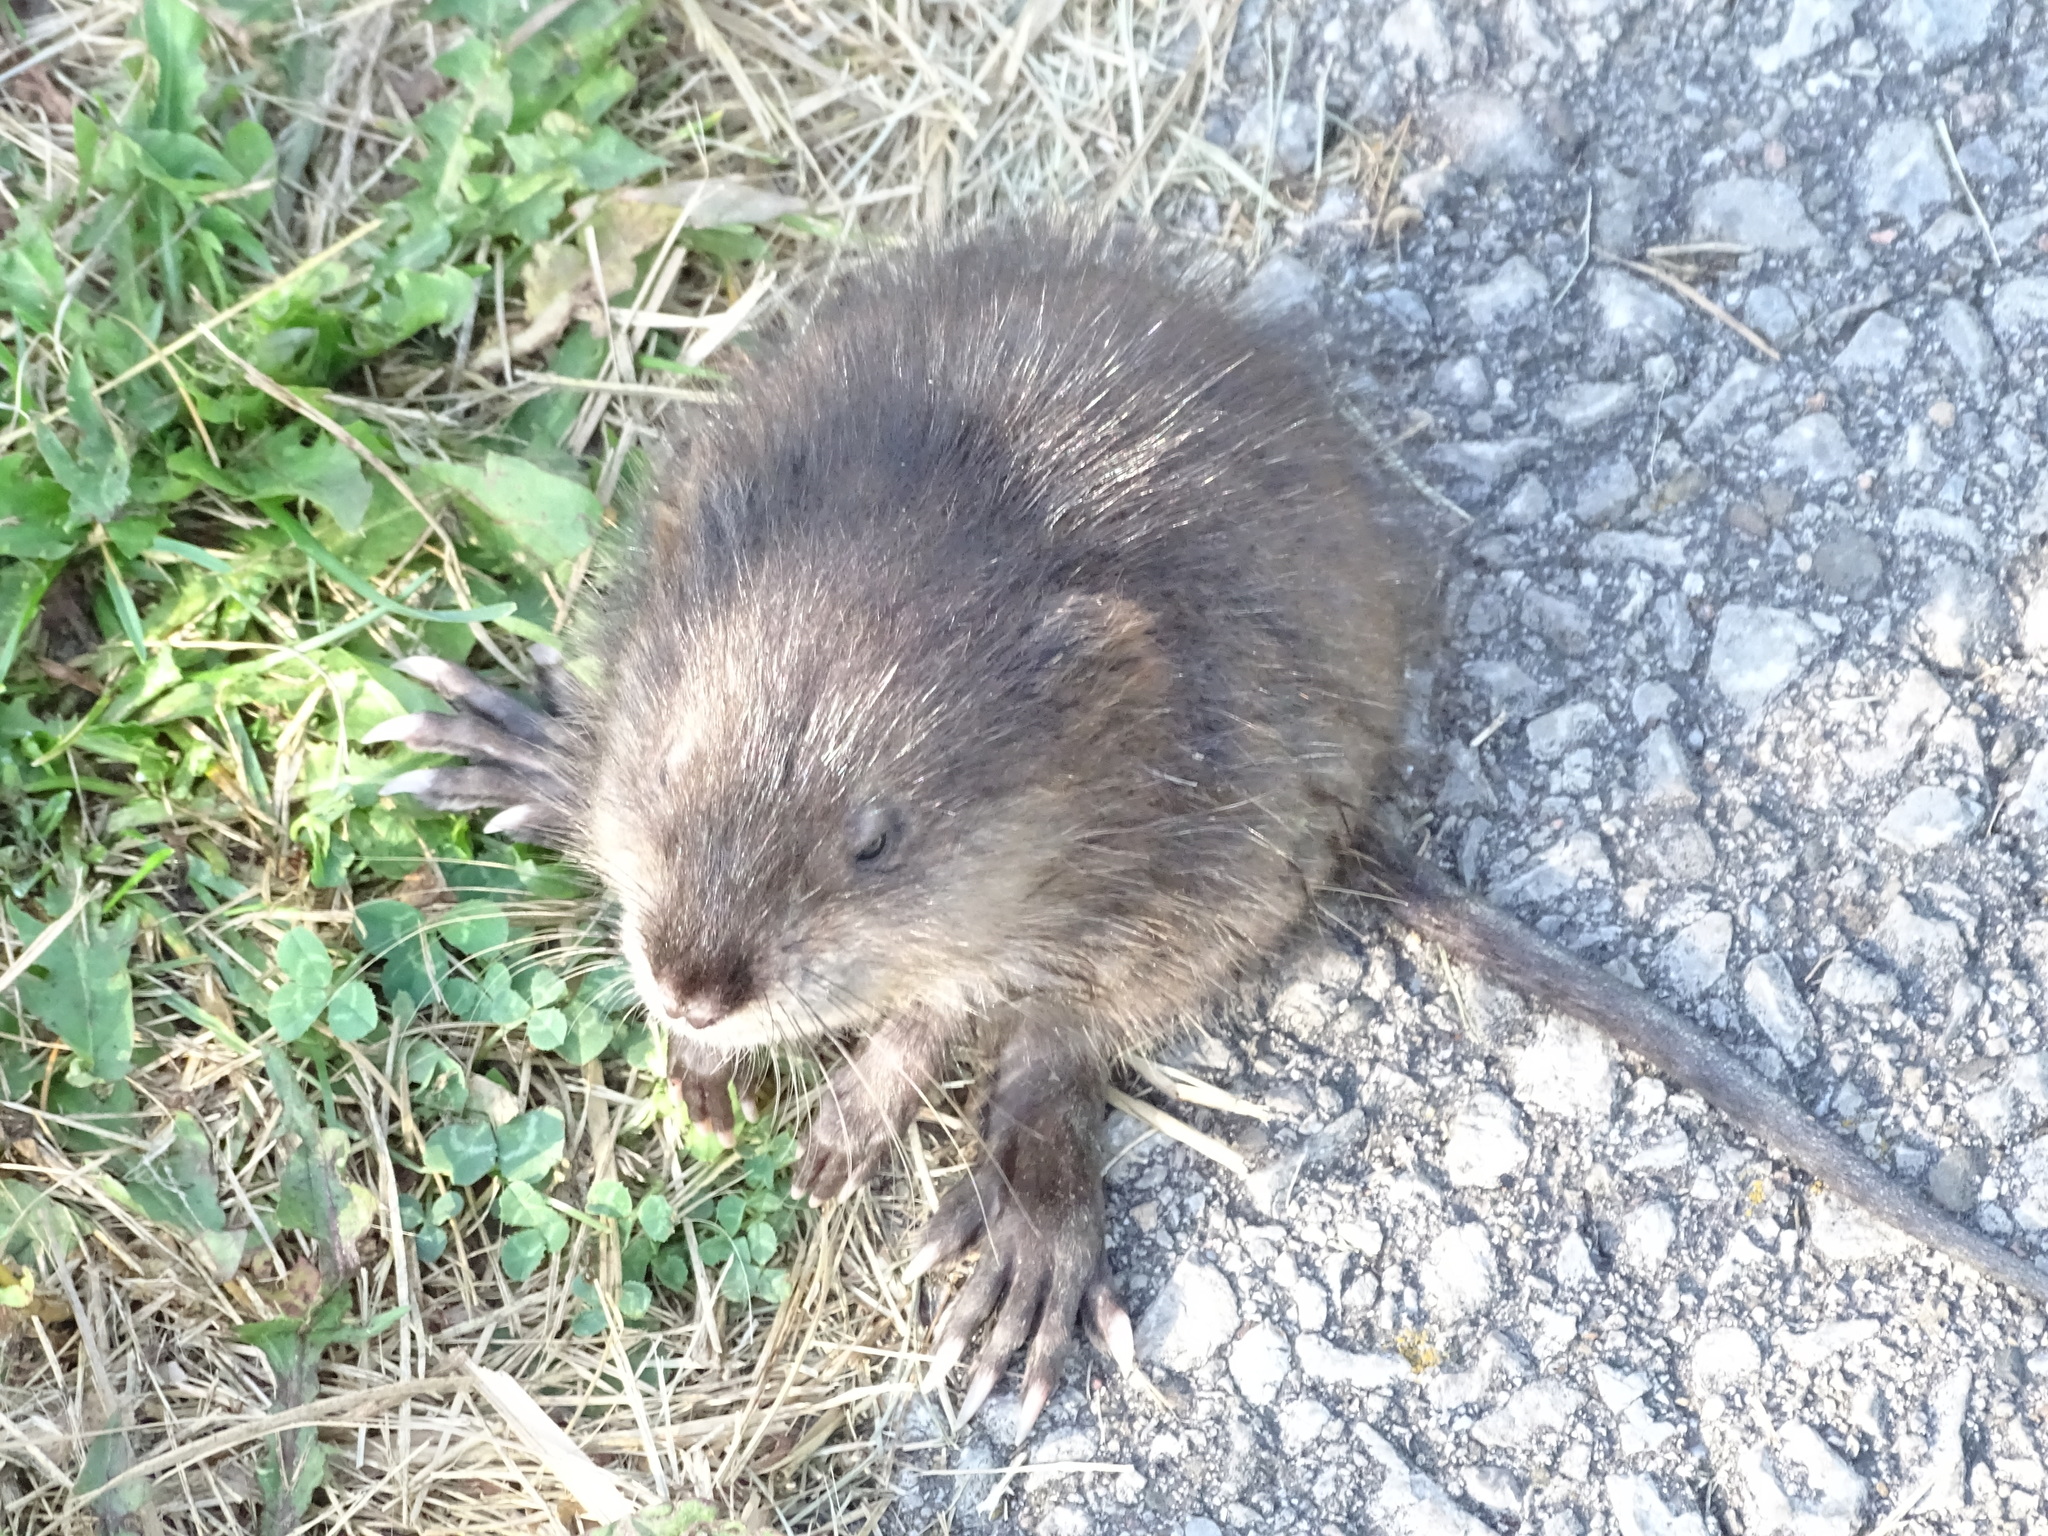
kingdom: Animalia
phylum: Chordata
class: Mammalia
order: Rodentia
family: Cricetidae
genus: Ondatra
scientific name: Ondatra zibethicus
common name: Muskrat
